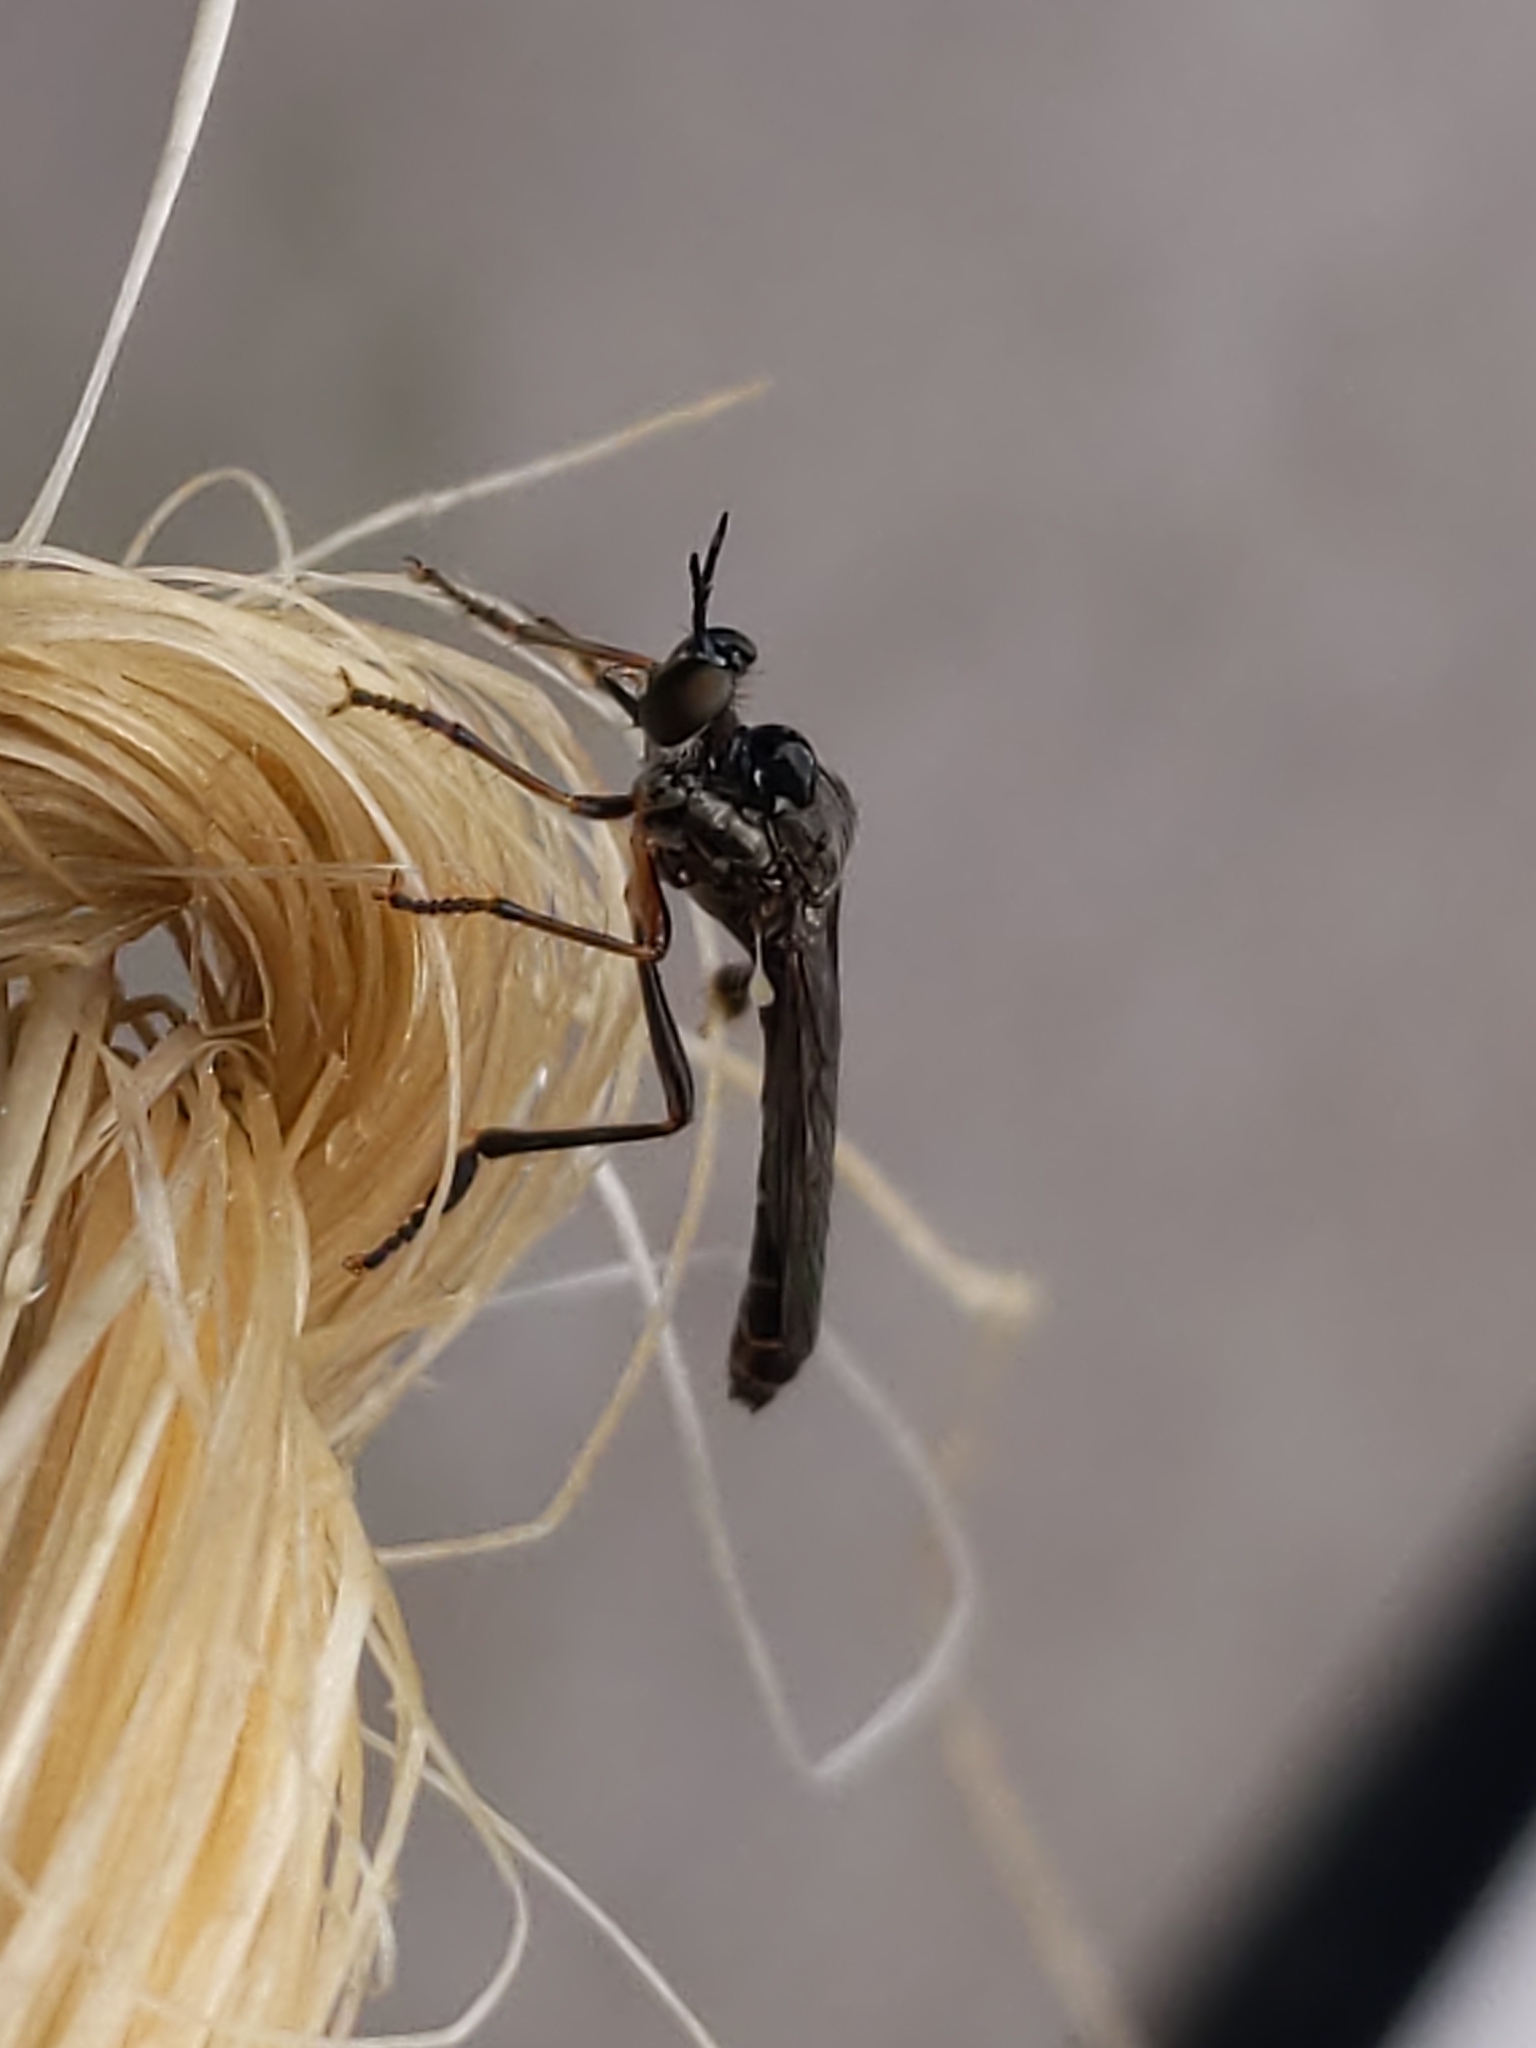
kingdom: Animalia
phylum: Arthropoda
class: Insecta
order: Diptera
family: Asilidae
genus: Dioctria
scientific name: Dioctria hyalipennis
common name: Stripe-legged robberfly
